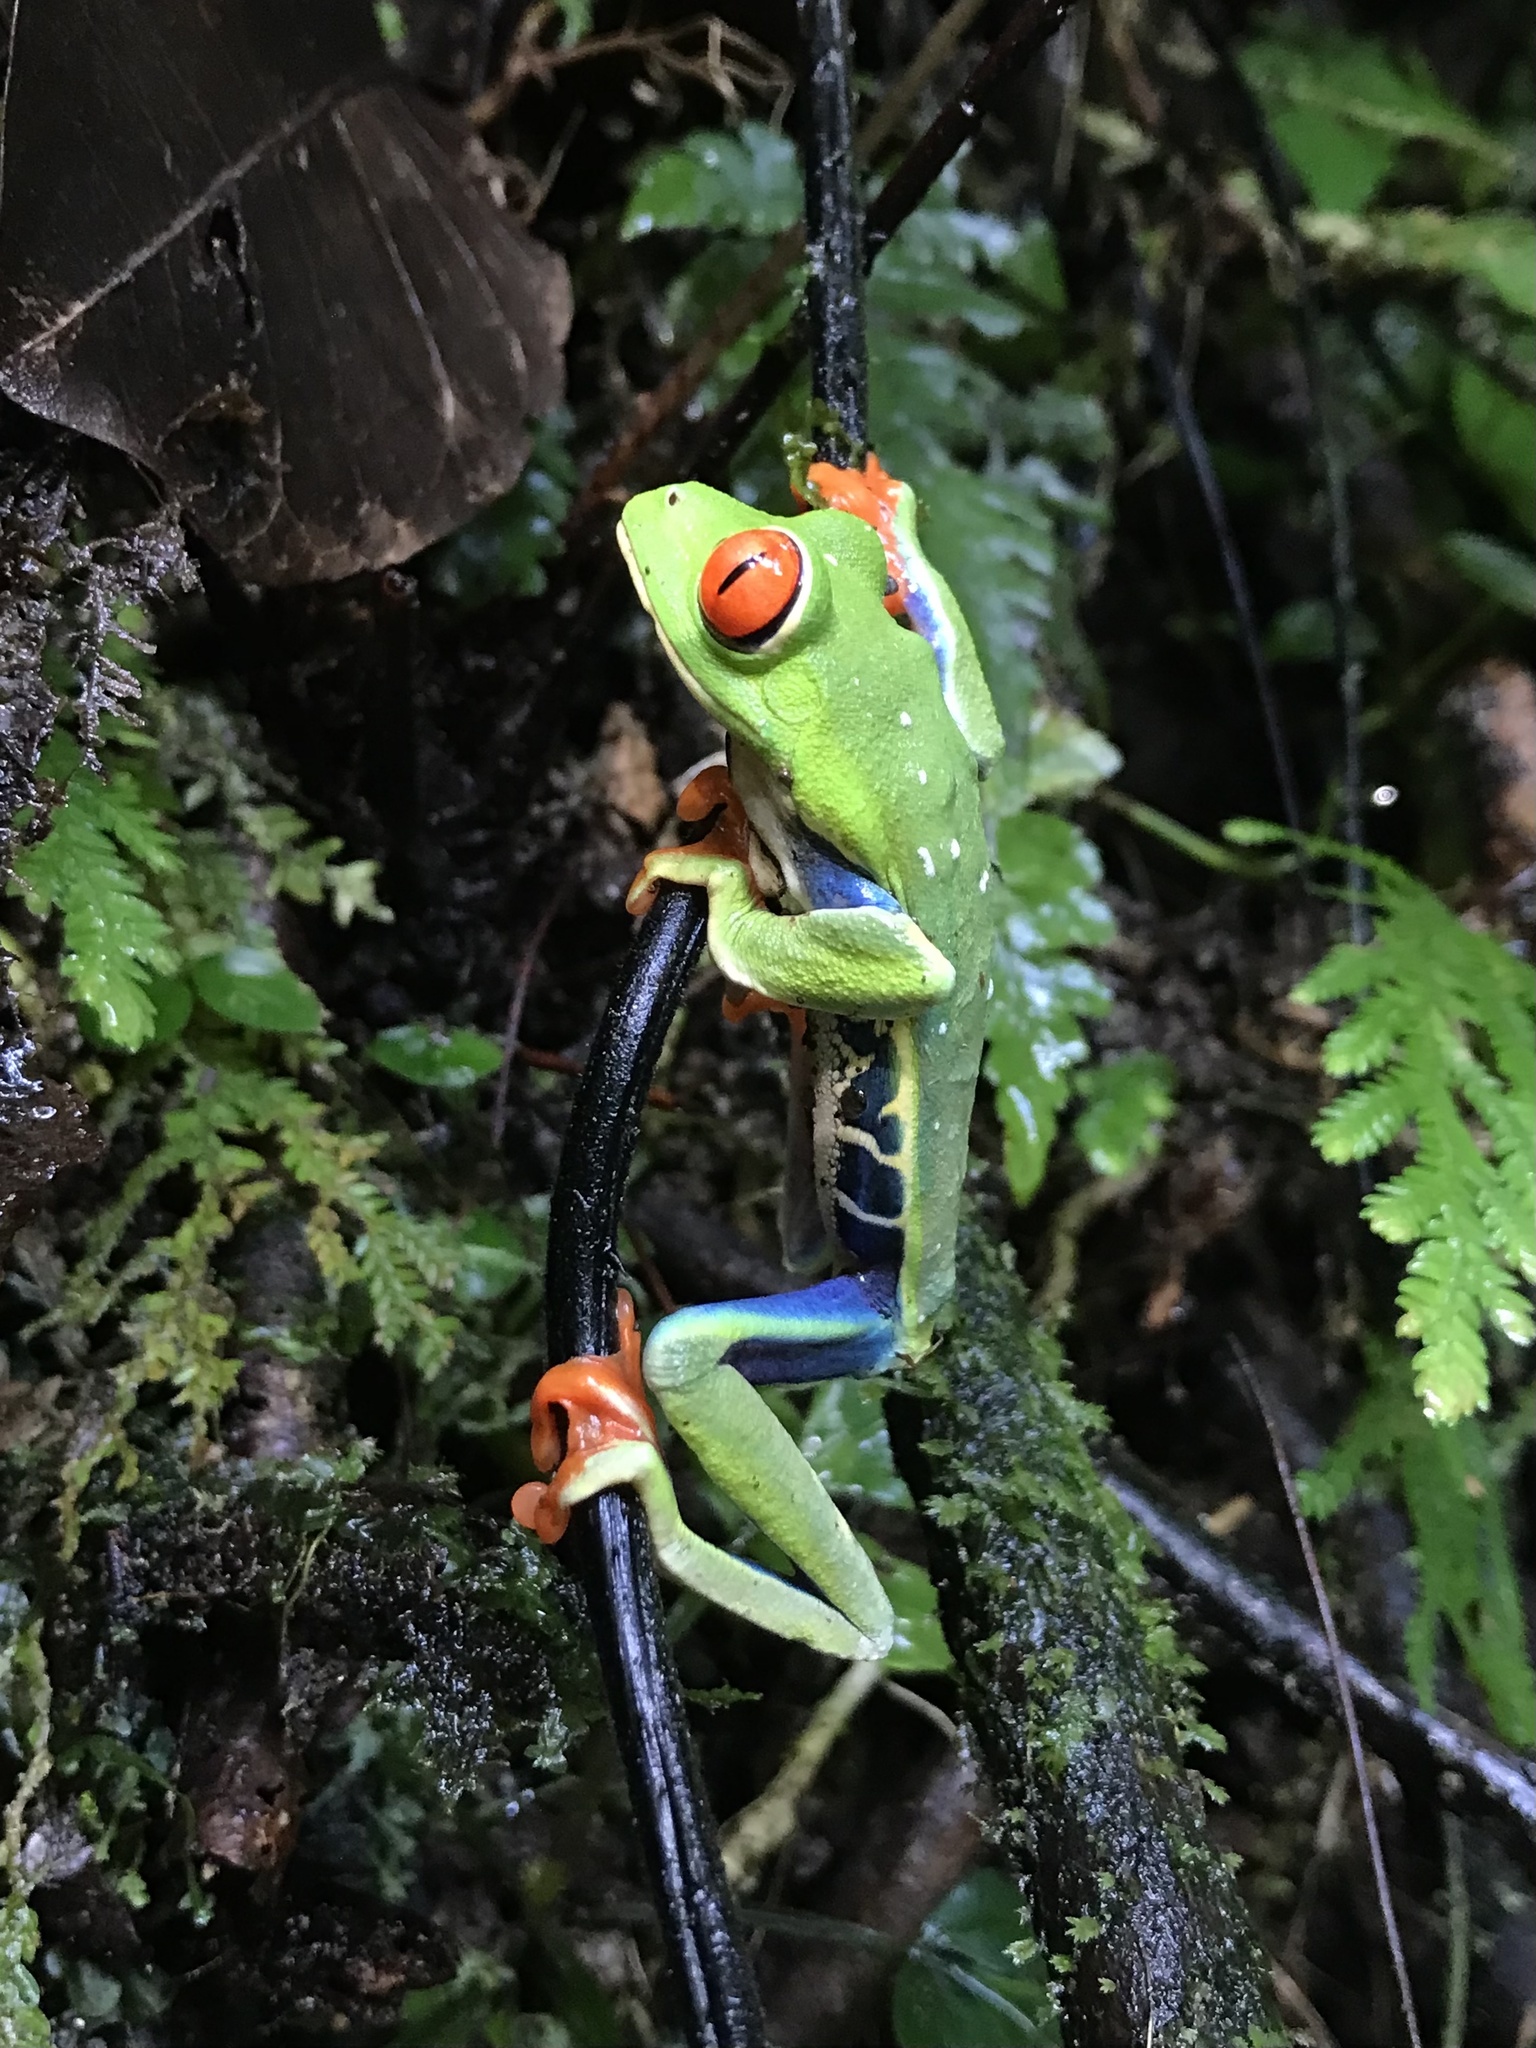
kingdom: Animalia
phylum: Chordata
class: Amphibia
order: Anura
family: Phyllomedusidae
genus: Agalychnis
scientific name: Agalychnis callidryas
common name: Red-eyed treefrog
